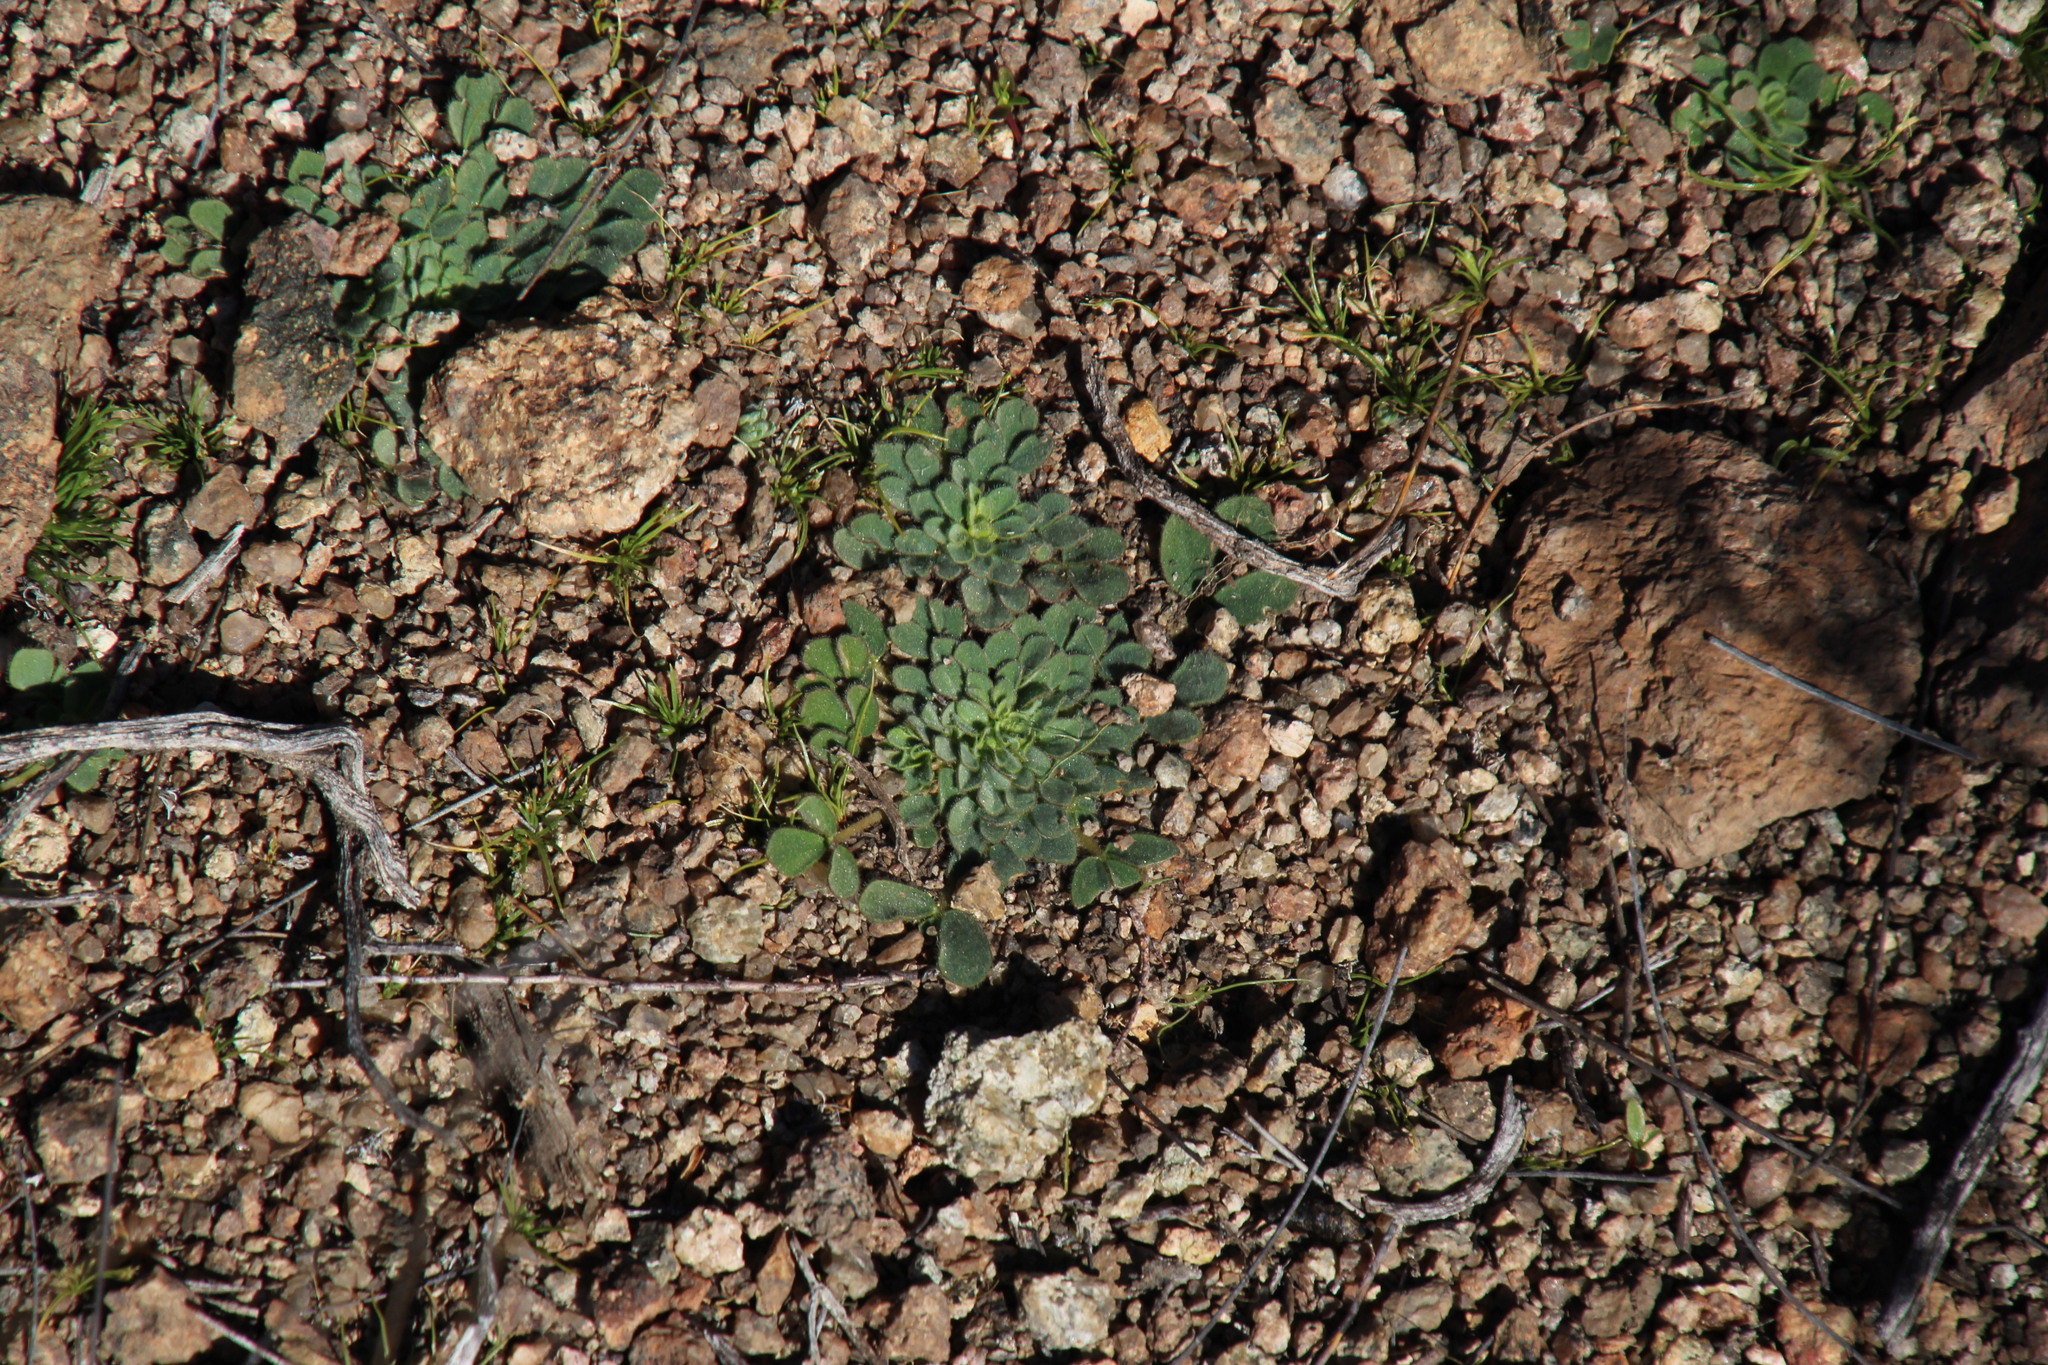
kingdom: Plantae
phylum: Tracheophyta
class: Magnoliopsida
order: Oxalidales
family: Oxalidaceae
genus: Oxalis
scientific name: Oxalis ambigua
